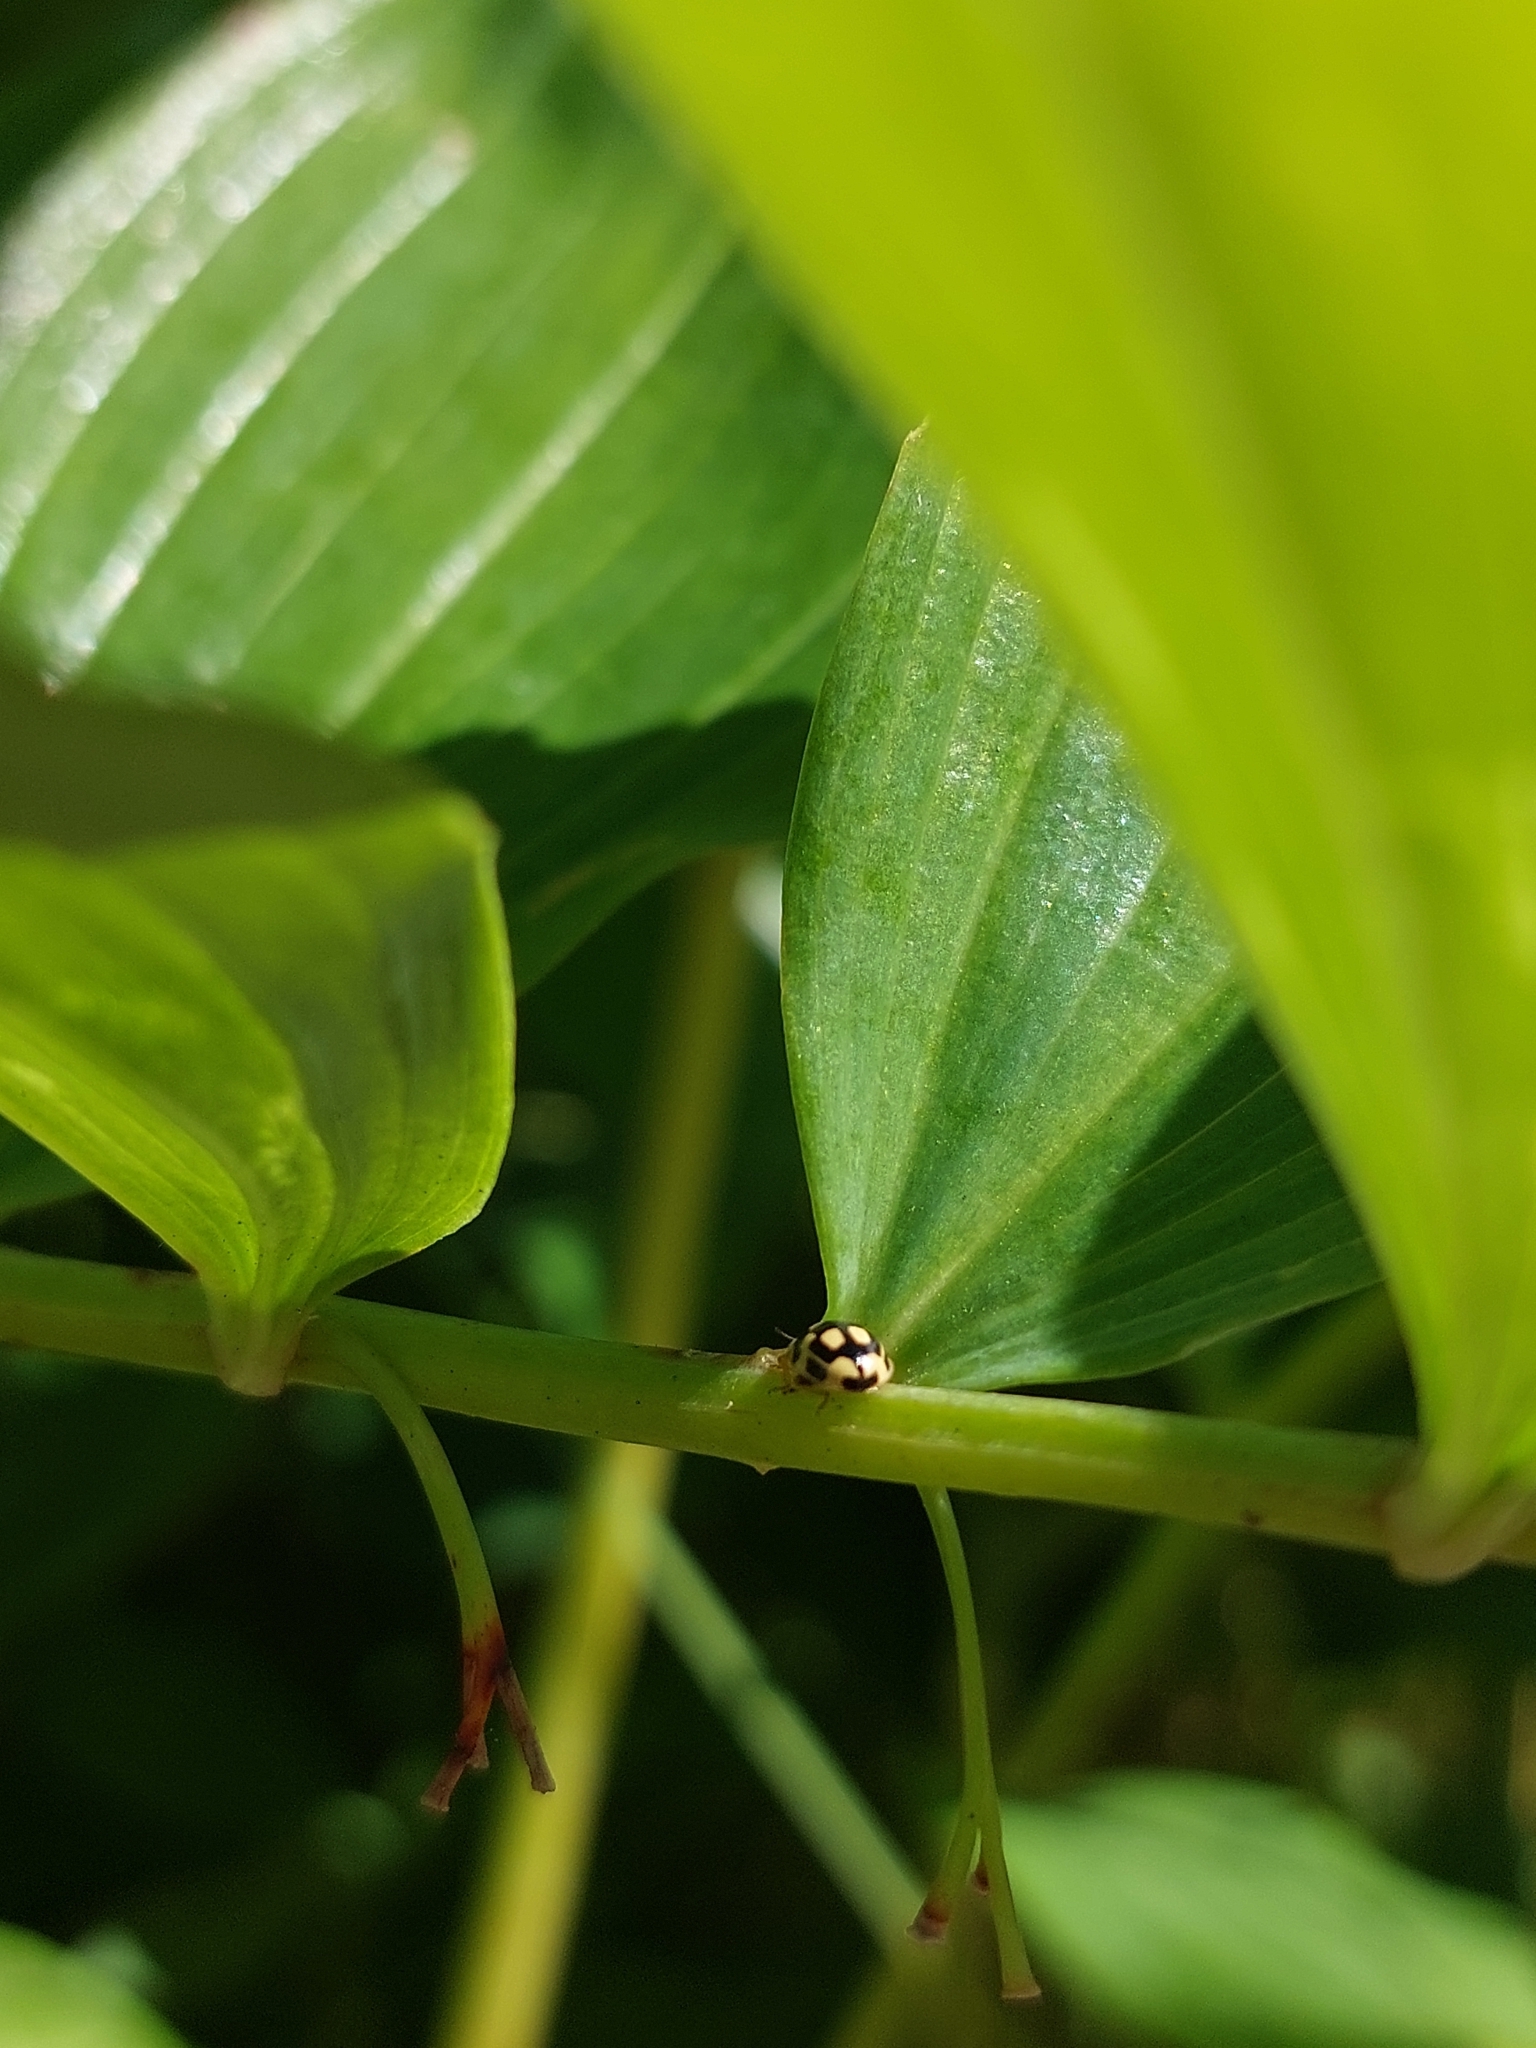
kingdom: Animalia
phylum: Arthropoda
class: Insecta
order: Coleoptera
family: Coccinellidae
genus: Propylaea
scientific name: Propylaea quatuordecimpunctata
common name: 14-spotted ladybird beetle
